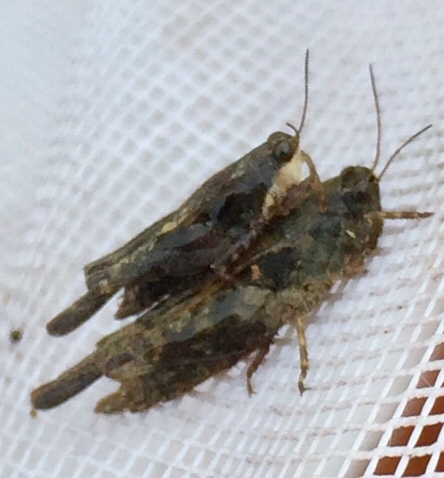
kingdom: Animalia
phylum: Arthropoda
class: Insecta
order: Orthoptera
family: Tetrigidae
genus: Tettigidea
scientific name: Tettigidea laterale
